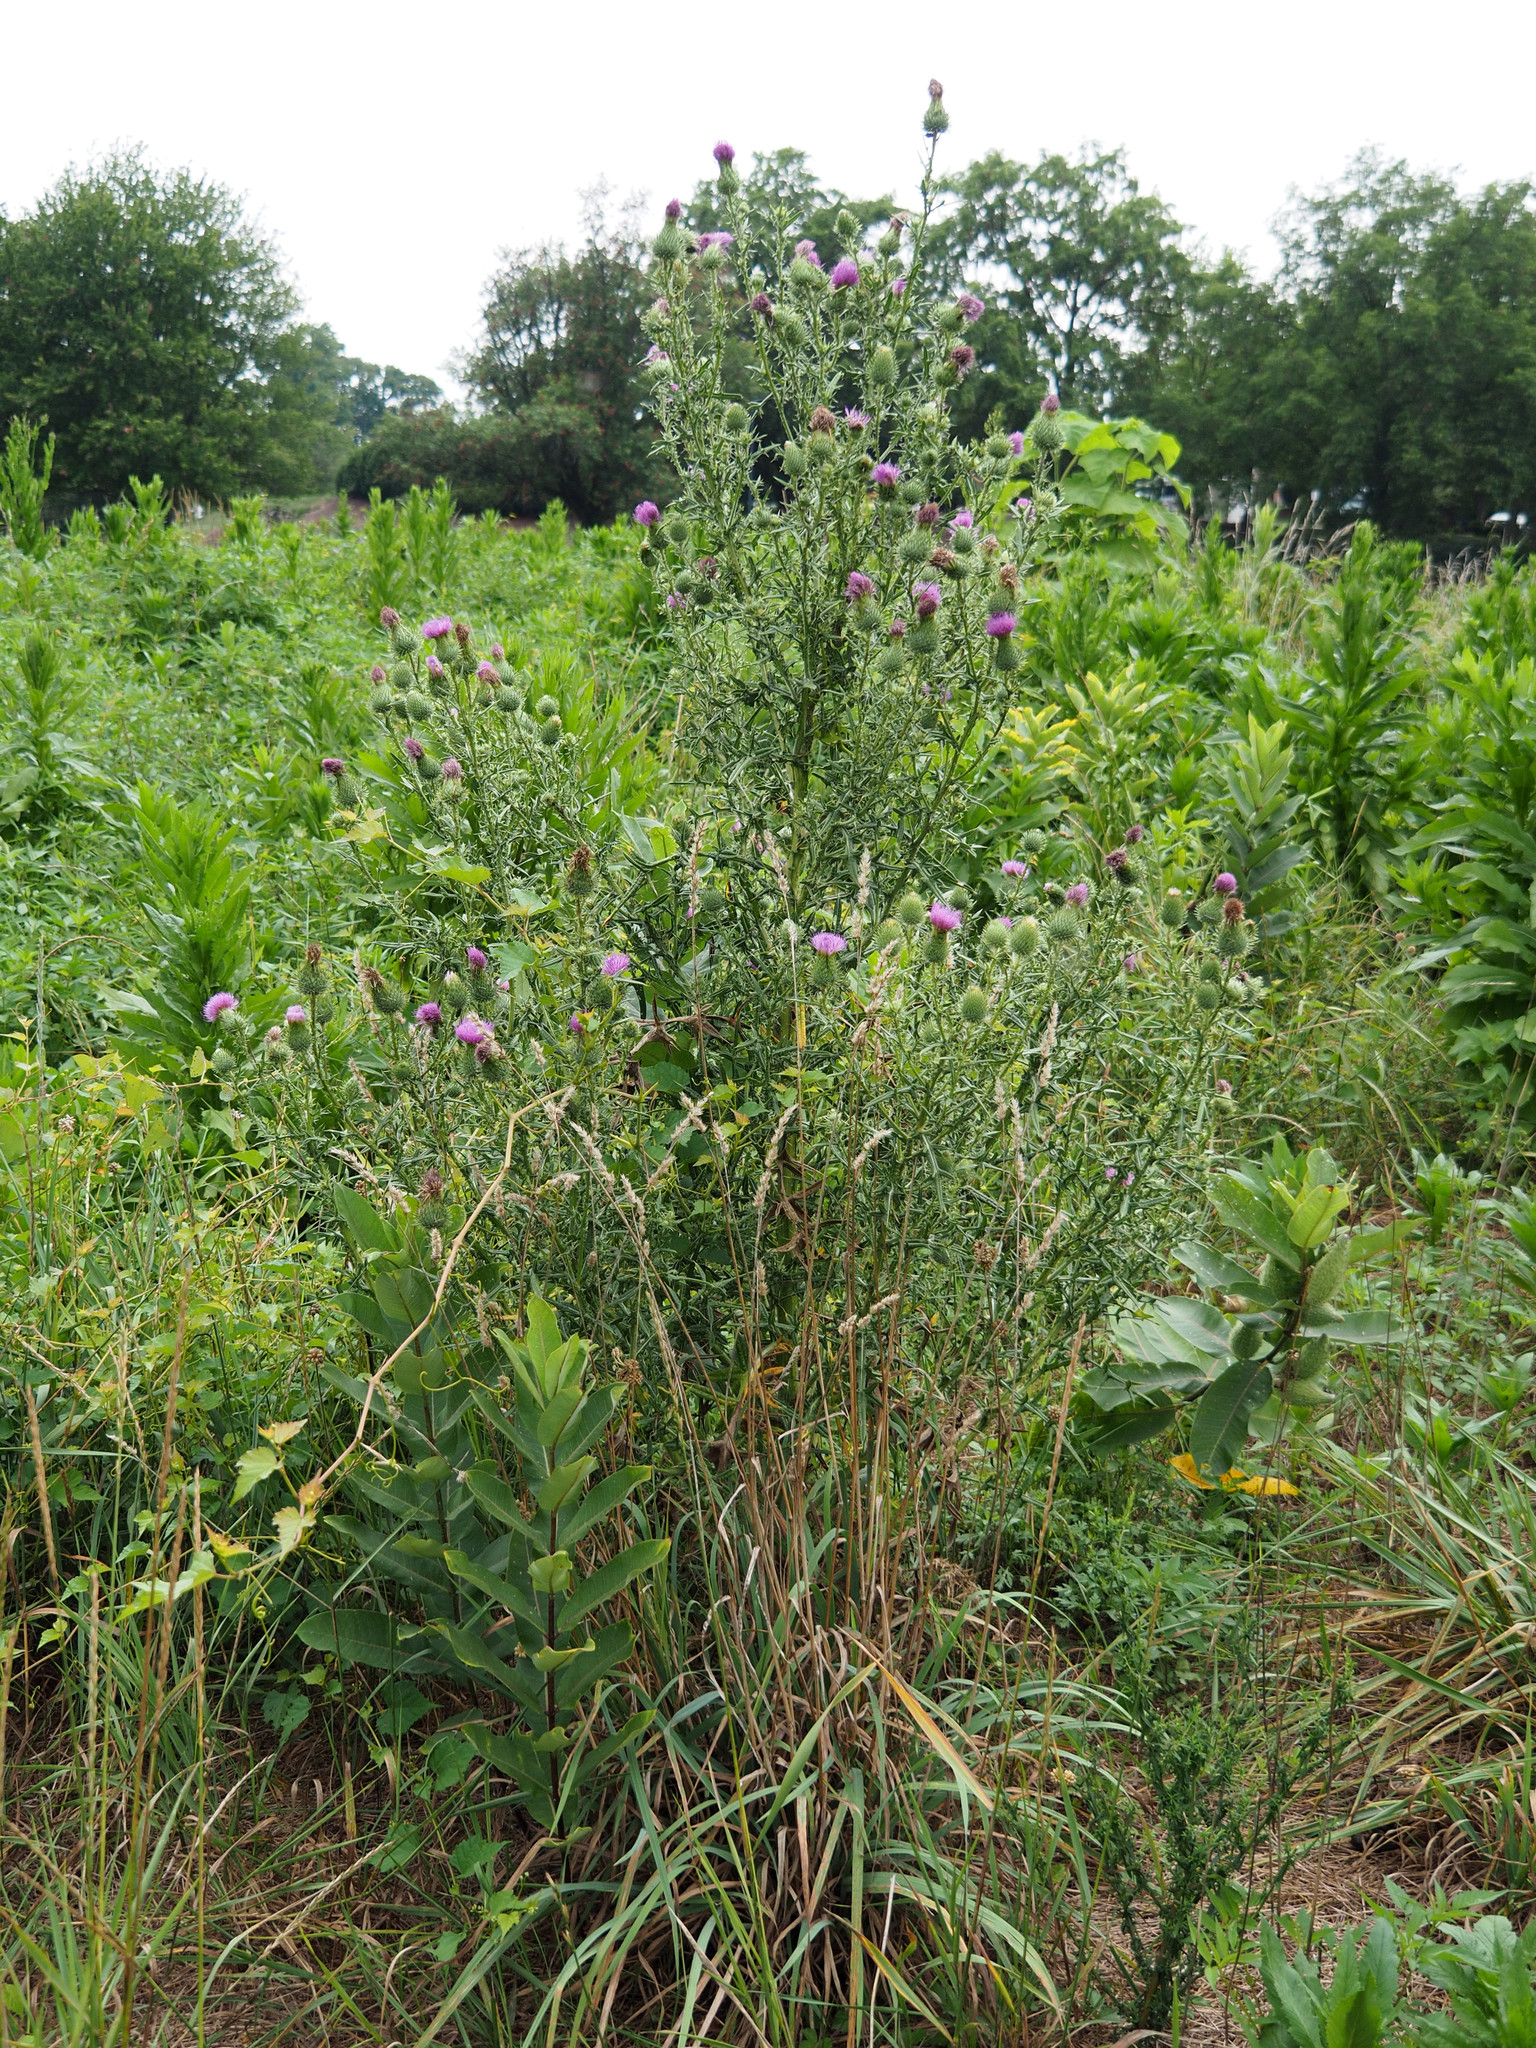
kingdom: Plantae
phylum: Tracheophyta
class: Magnoliopsida
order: Asterales
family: Asteraceae
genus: Cirsium
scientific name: Cirsium vulgare
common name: Bull thistle
